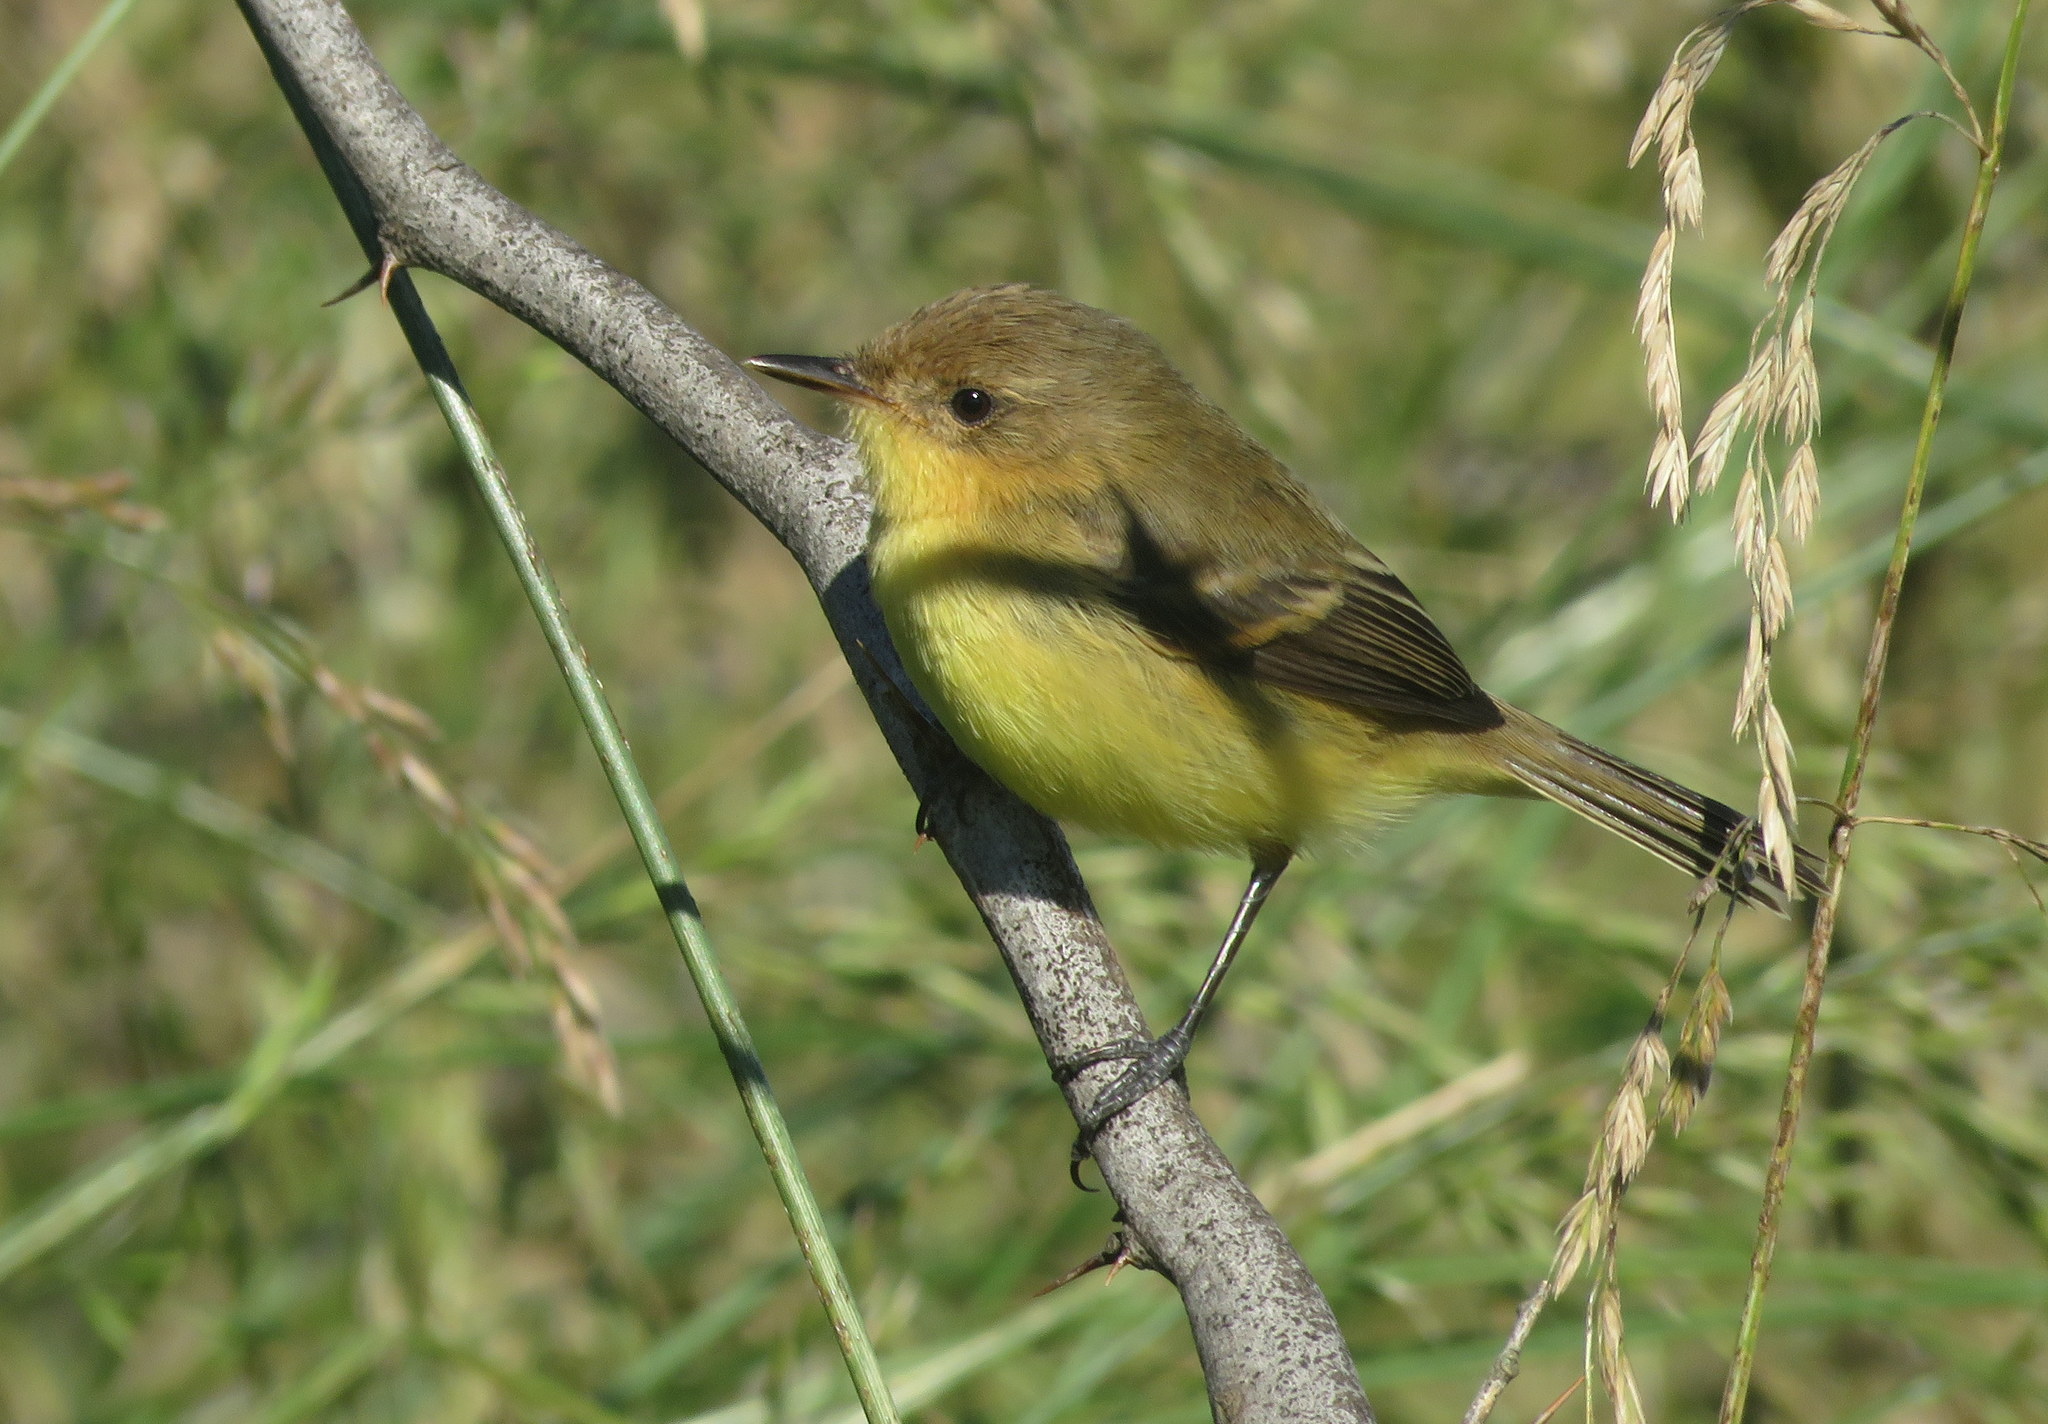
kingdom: Animalia
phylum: Chordata
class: Aves
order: Passeriformes
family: Tyrannidae
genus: Pseudocolopteryx
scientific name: Pseudocolopteryx flaviventris
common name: Warbling doradito
